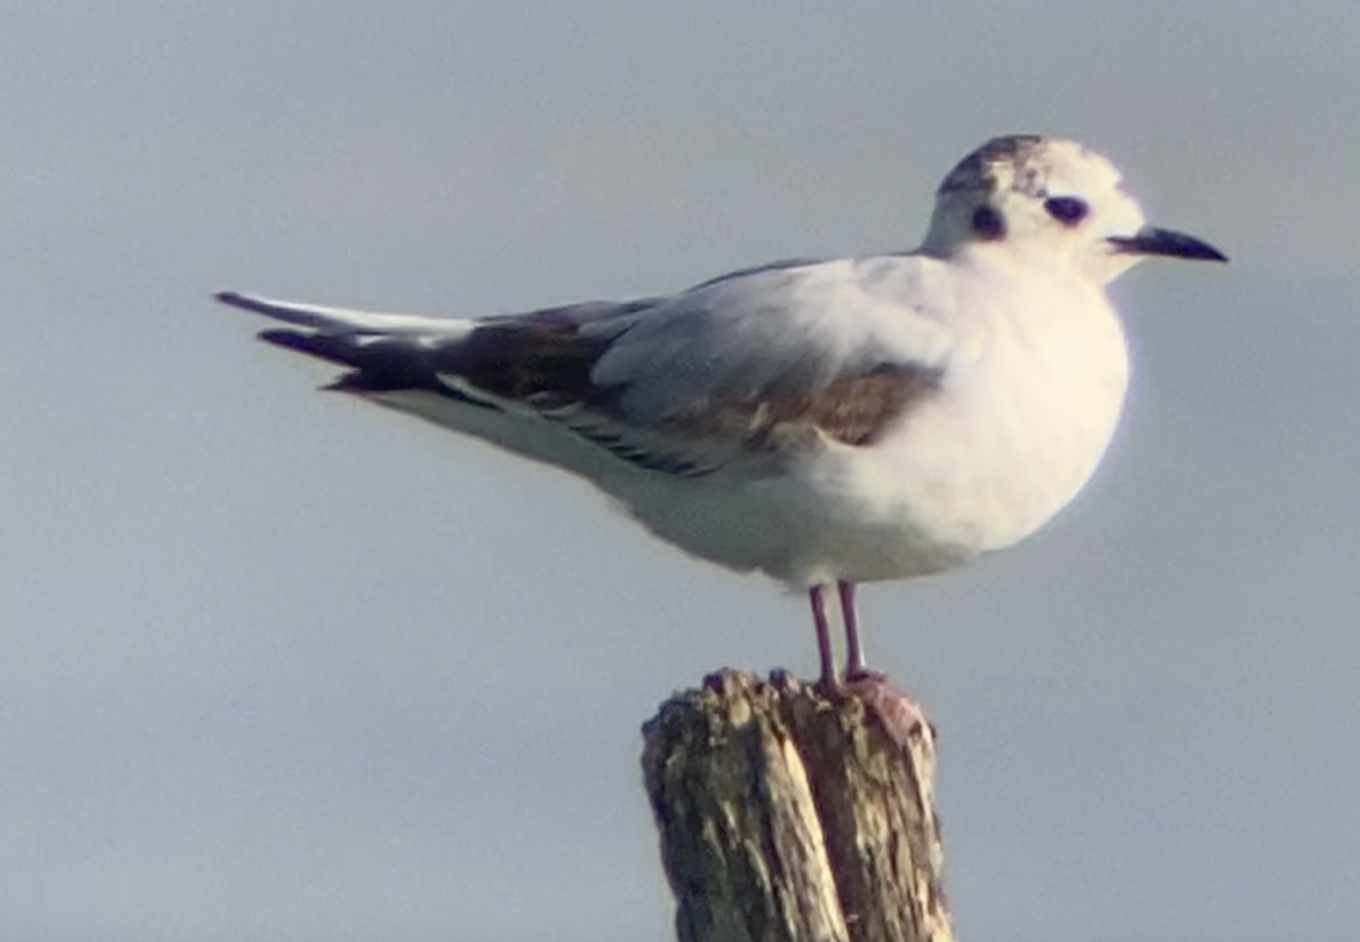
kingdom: Animalia
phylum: Chordata
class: Aves
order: Charadriiformes
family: Laridae
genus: Hydrocoloeus
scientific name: Hydrocoloeus minutus
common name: Little gull
